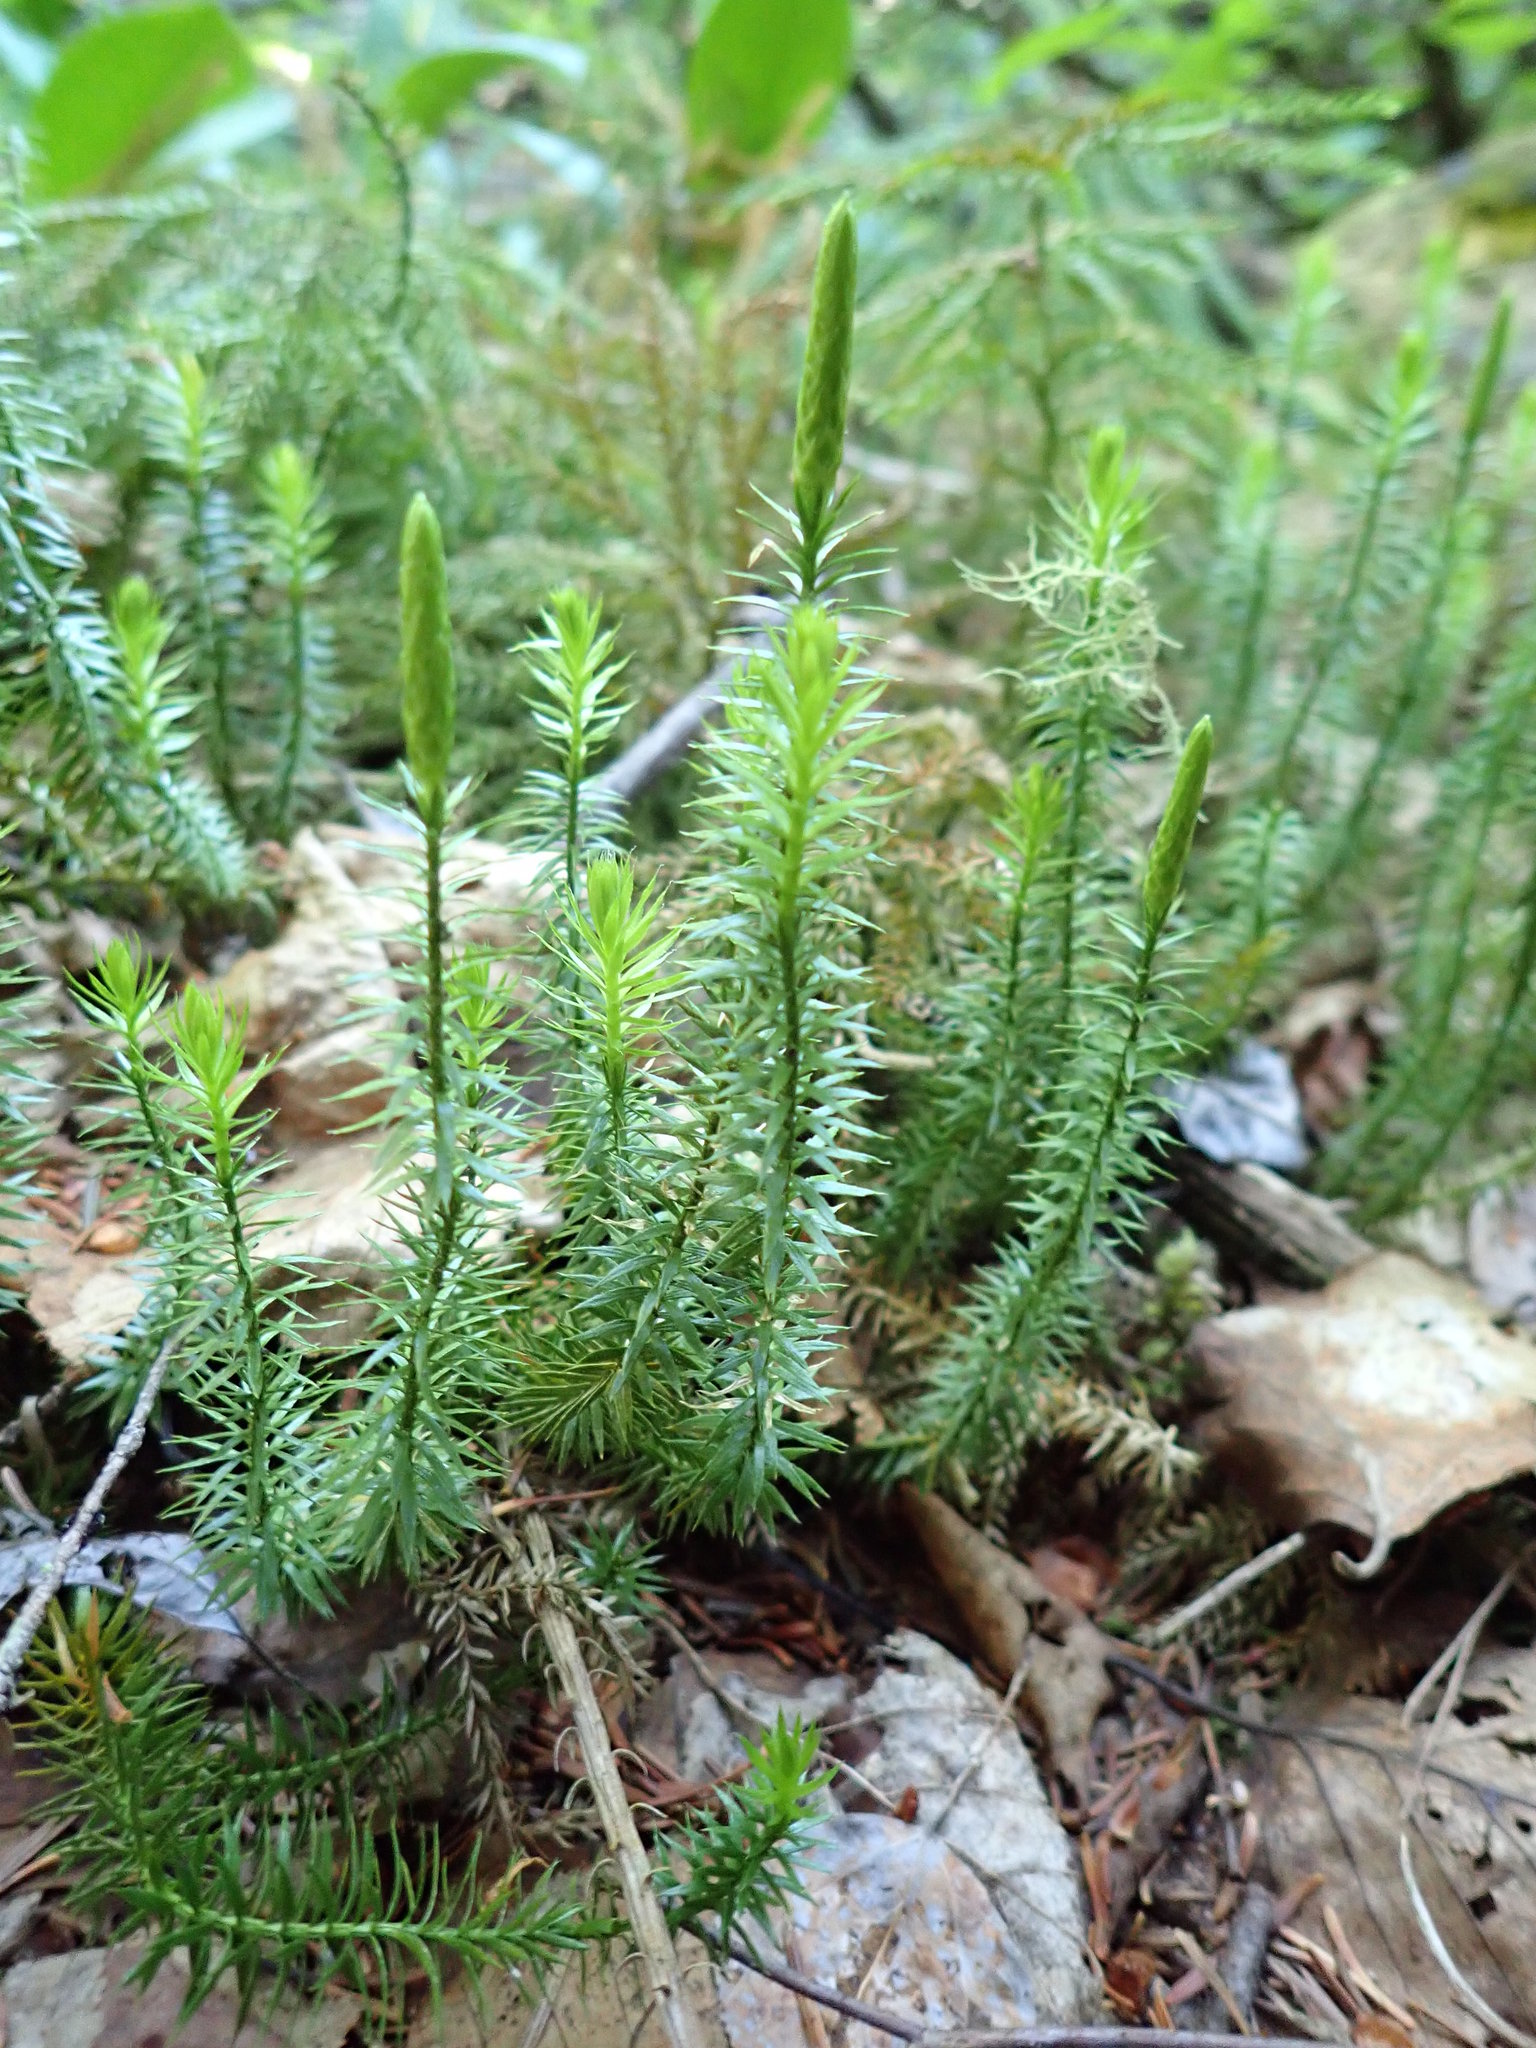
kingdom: Plantae
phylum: Tracheophyta
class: Lycopodiopsida
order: Lycopodiales
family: Lycopodiaceae
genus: Spinulum
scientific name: Spinulum annotinum
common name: Interrupted club-moss
